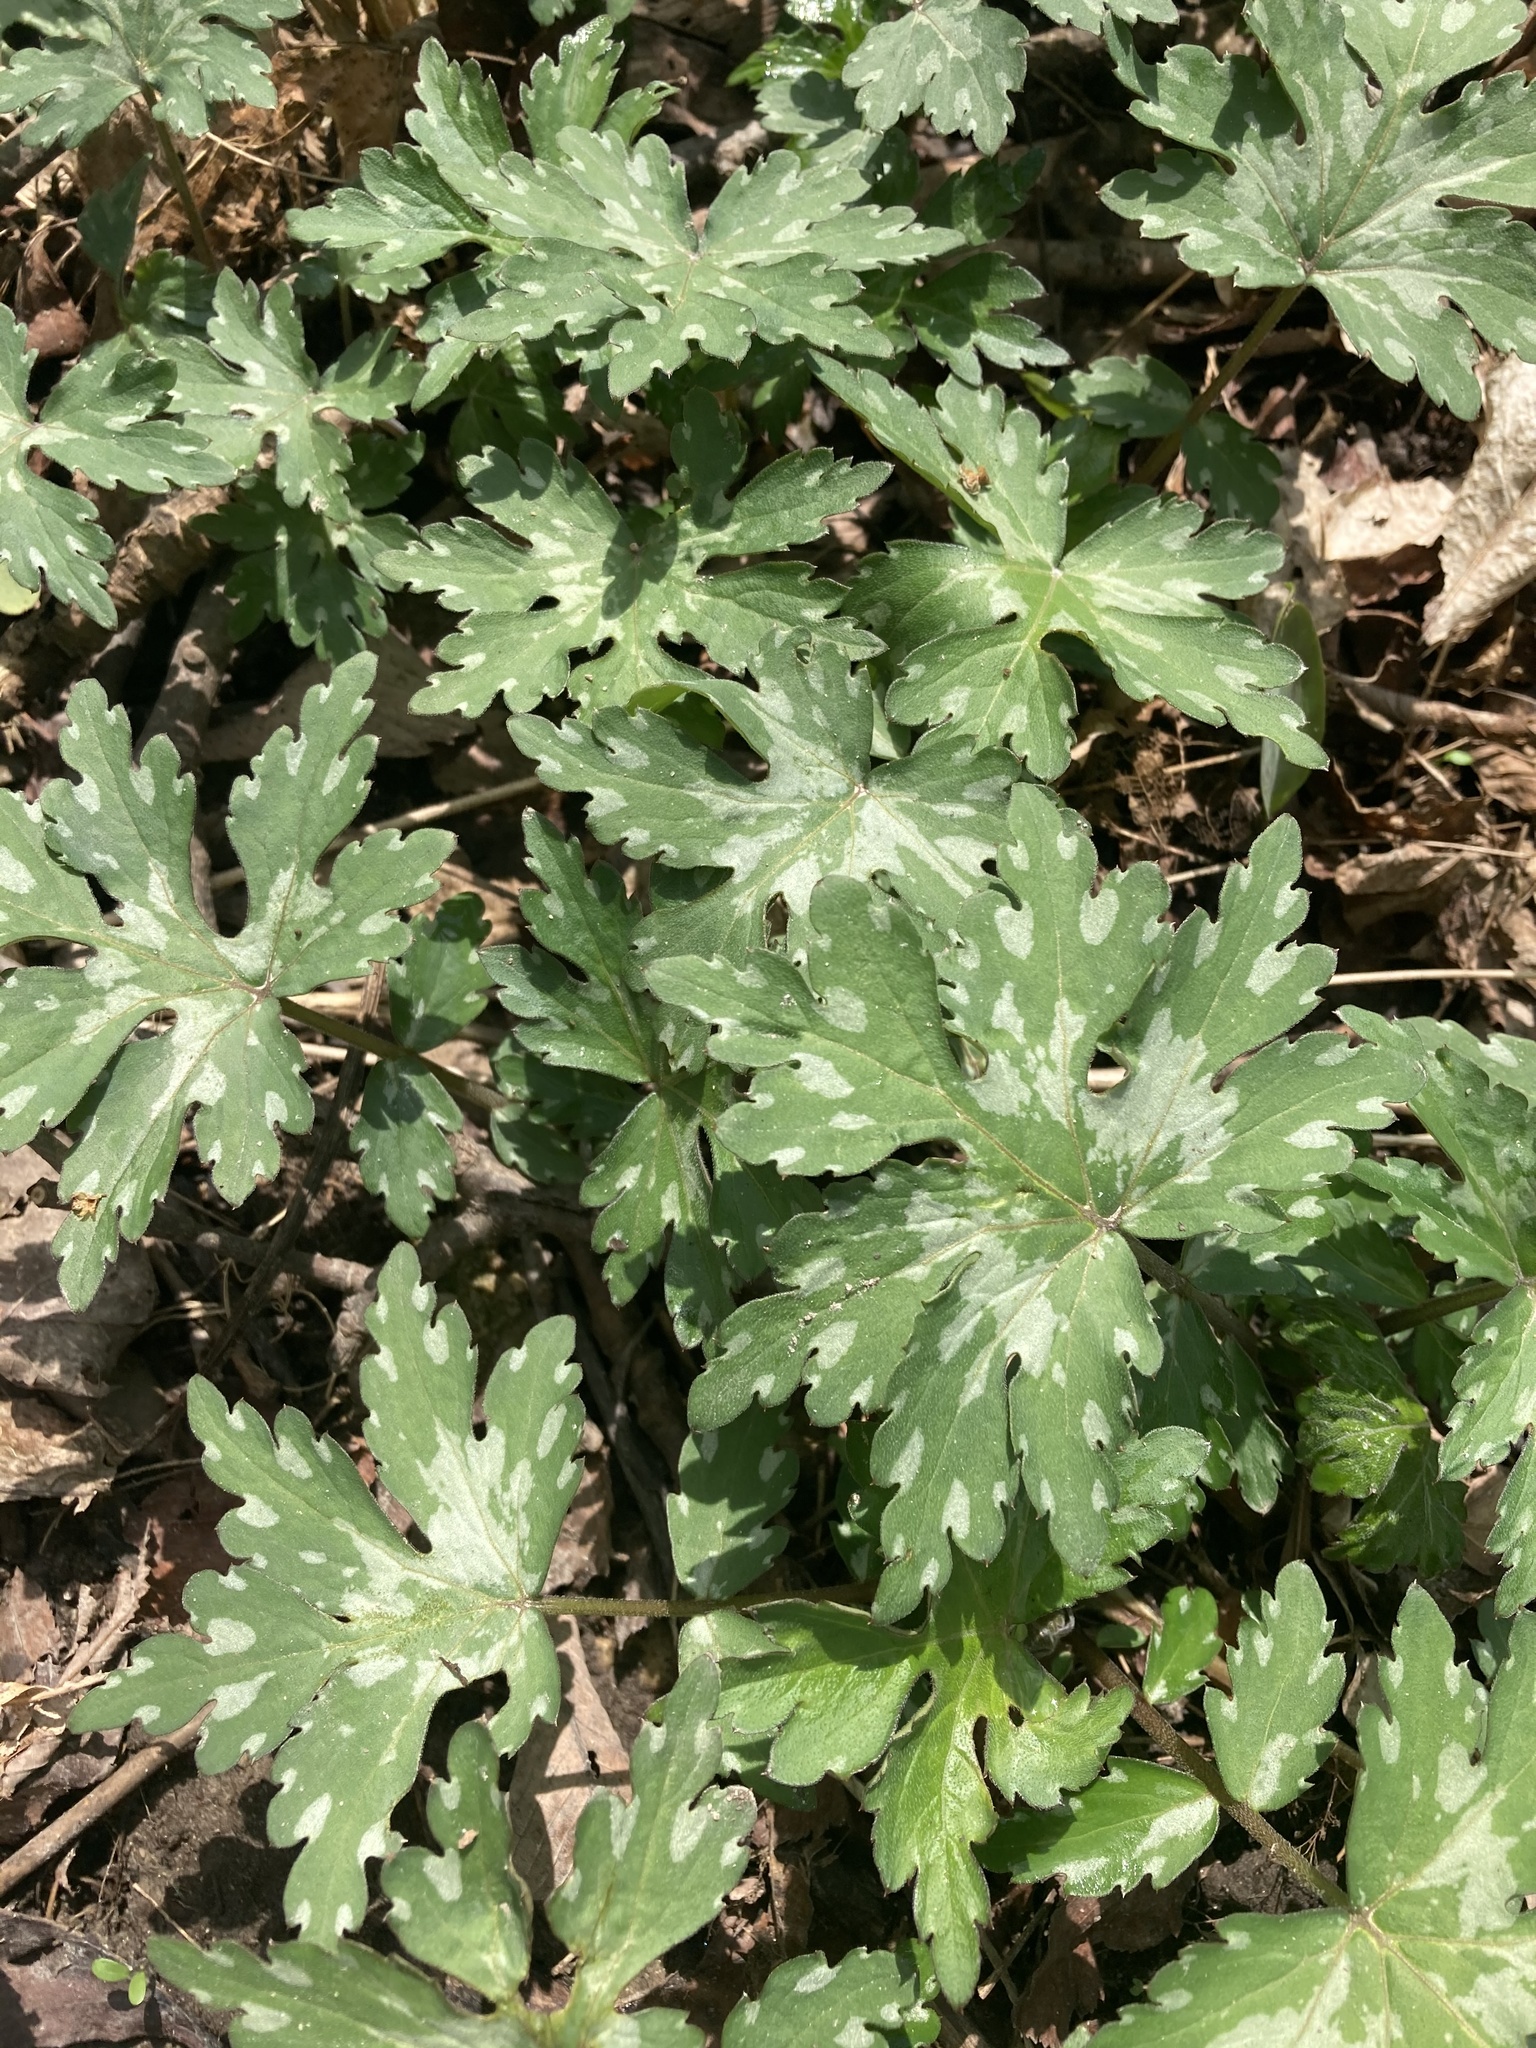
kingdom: Plantae
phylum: Tracheophyta
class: Magnoliopsida
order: Boraginales
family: Hydrophyllaceae
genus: Hydrophyllum
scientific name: Hydrophyllum canadense
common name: Canada waterleaf
